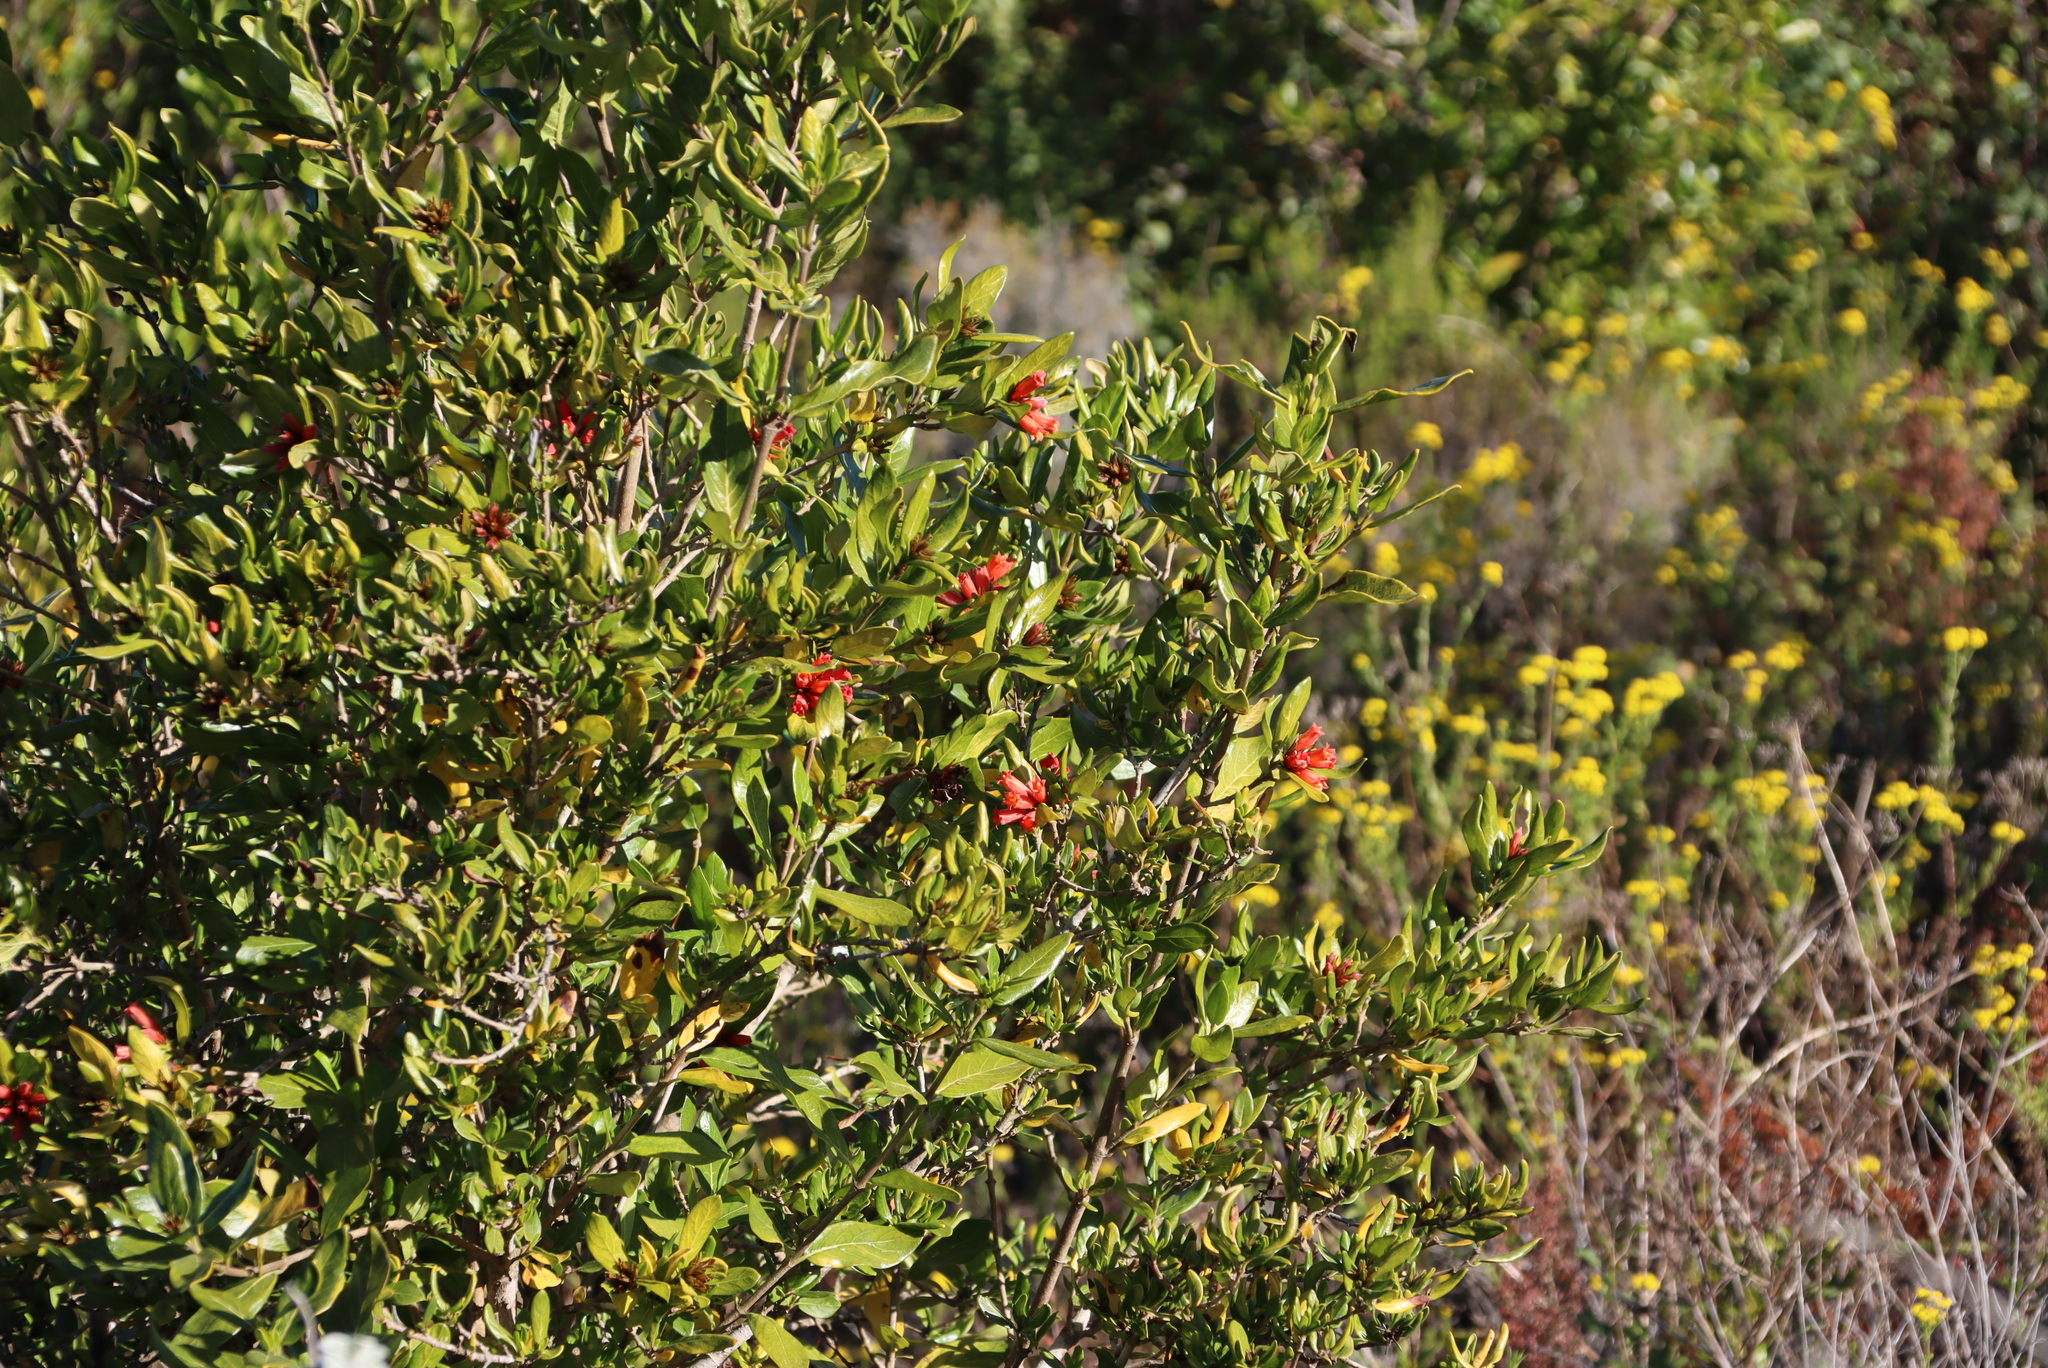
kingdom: Plantae
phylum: Tracheophyta
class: Magnoliopsida
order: Gentianales
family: Rubiaceae
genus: Burchellia
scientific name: Burchellia bubalina
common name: Wild pomegranate
